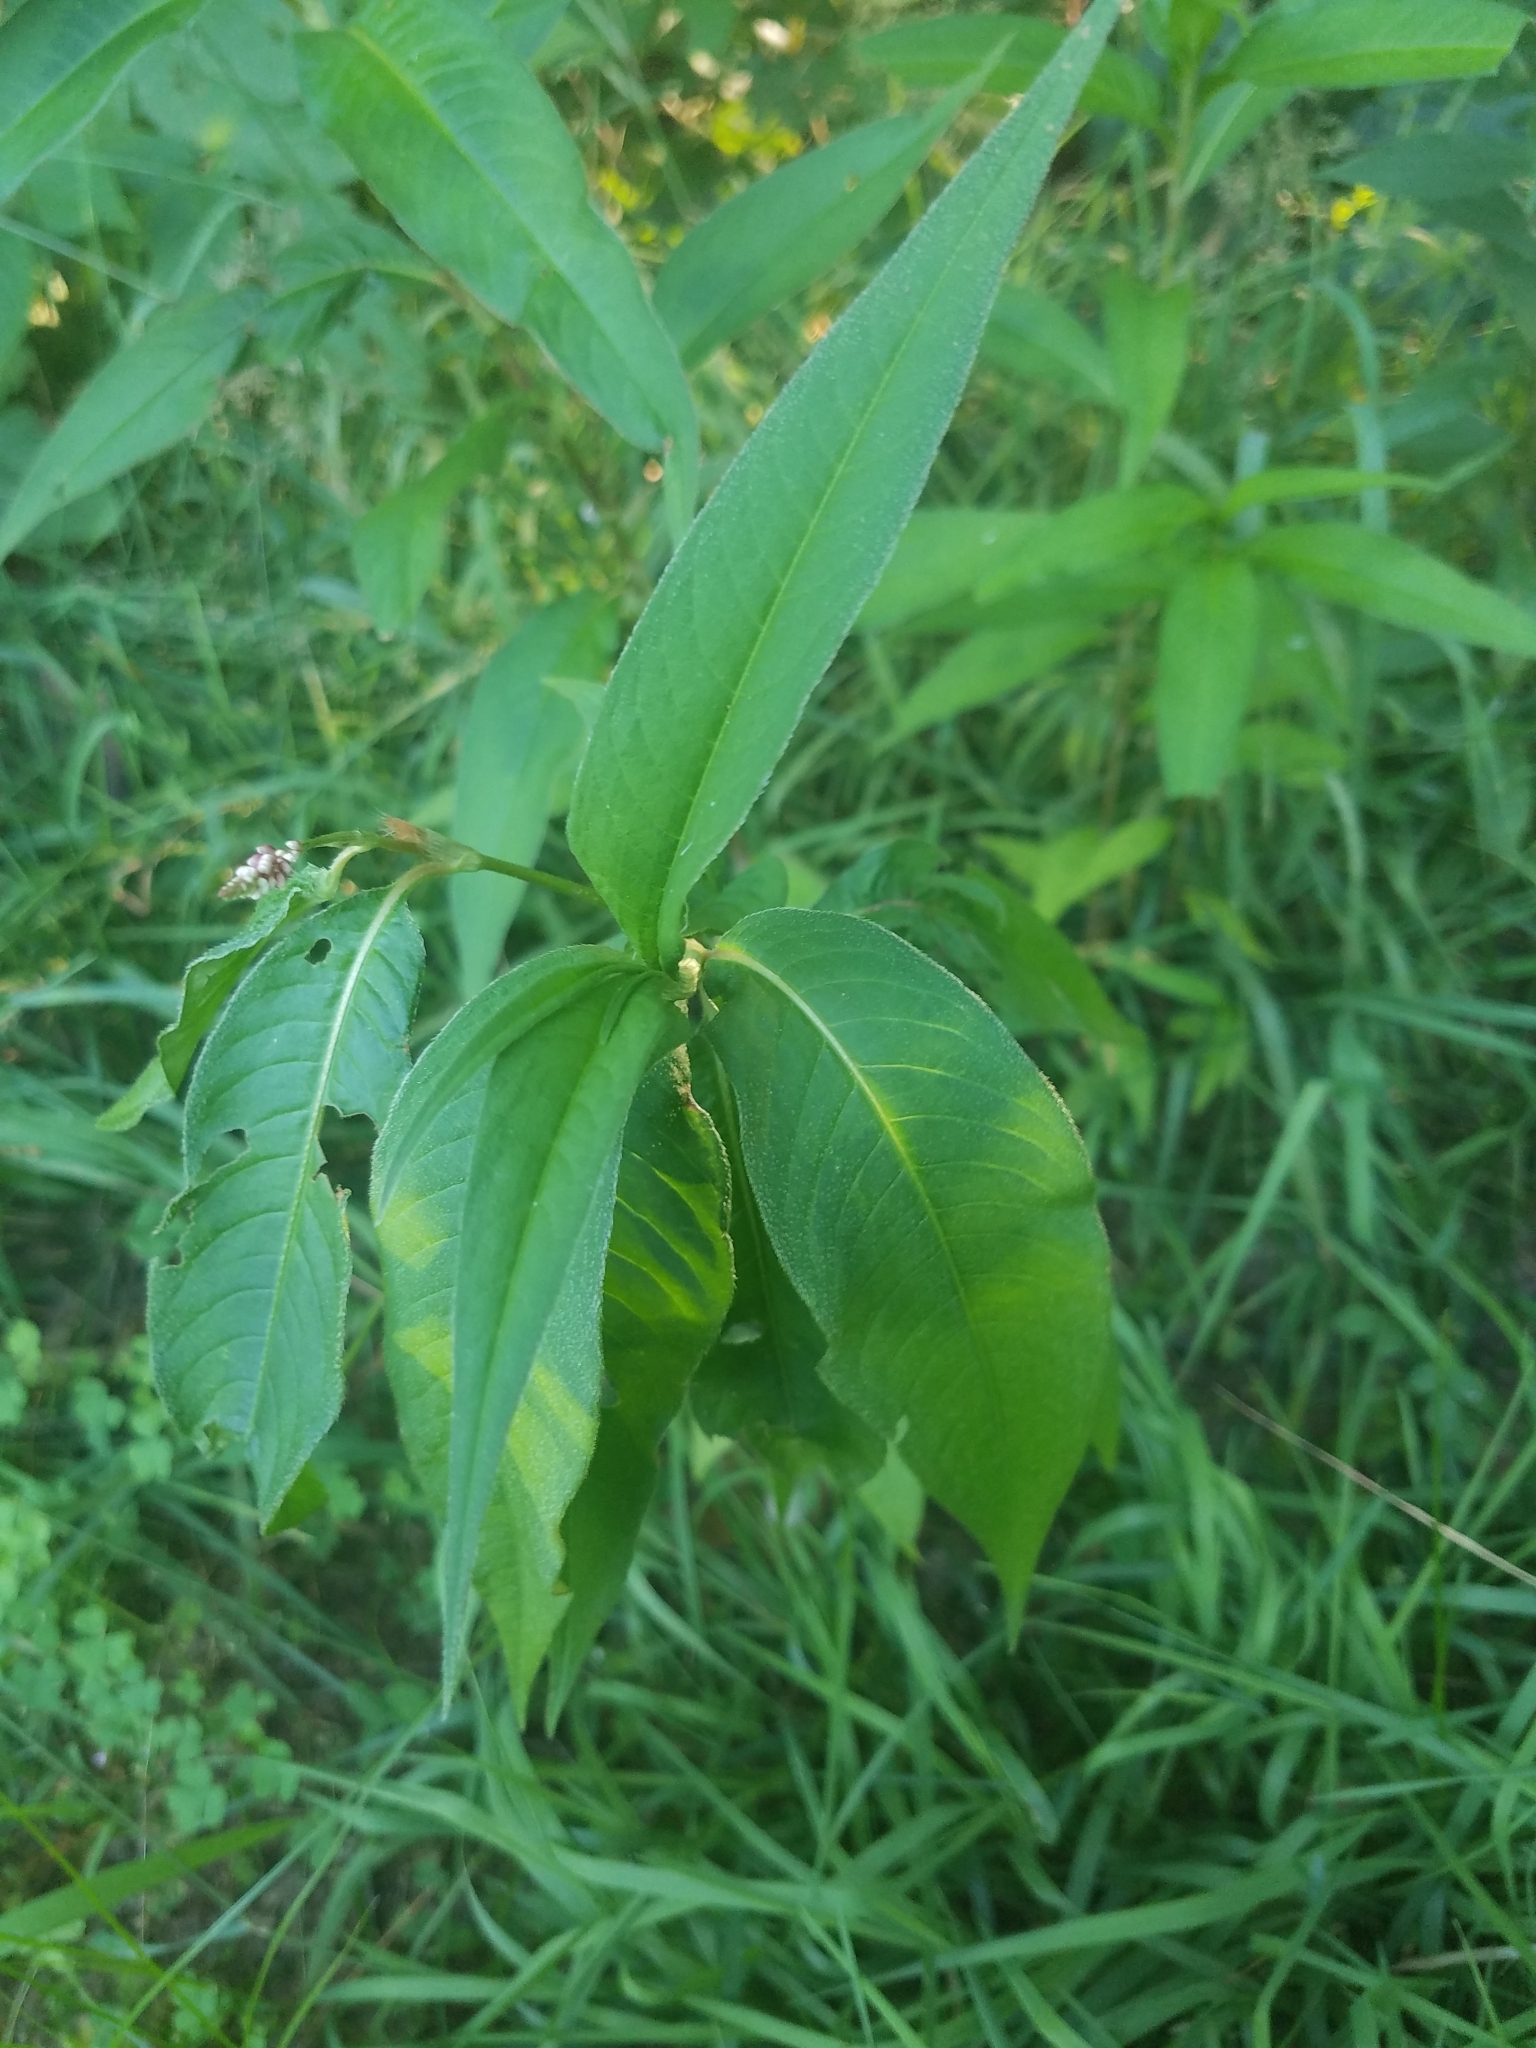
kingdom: Plantae
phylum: Tracheophyta
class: Magnoliopsida
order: Caryophyllales
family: Polygonaceae
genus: Persicaria
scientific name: Persicaria longiseta
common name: Bristly lady's-thumb
